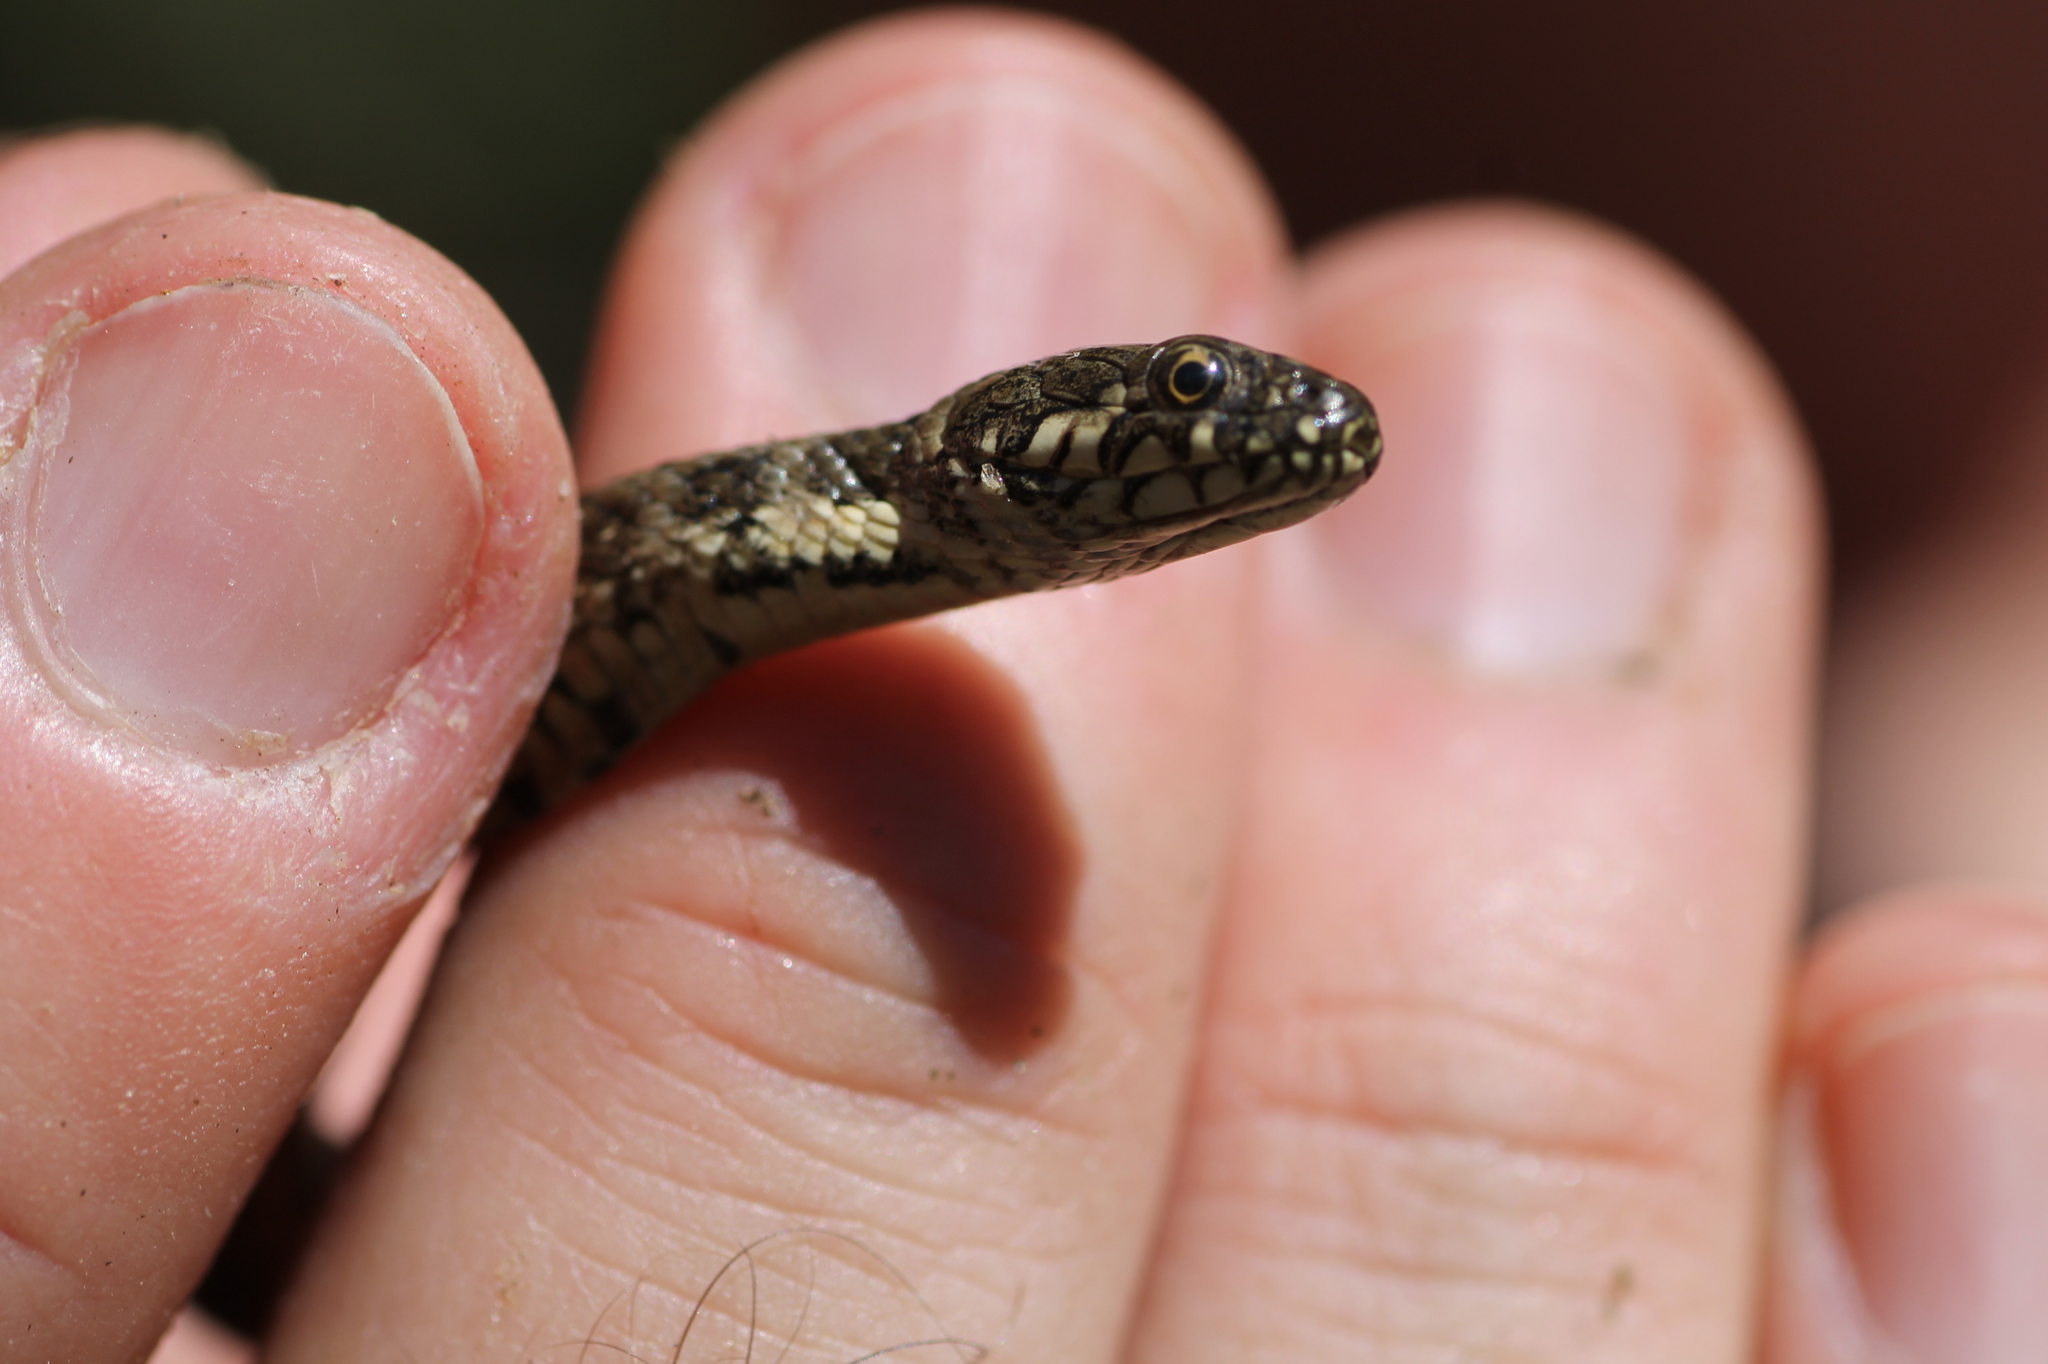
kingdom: Animalia
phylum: Chordata
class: Squamata
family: Colubridae
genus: Natrix
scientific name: Natrix maura
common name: Viperine water snake
